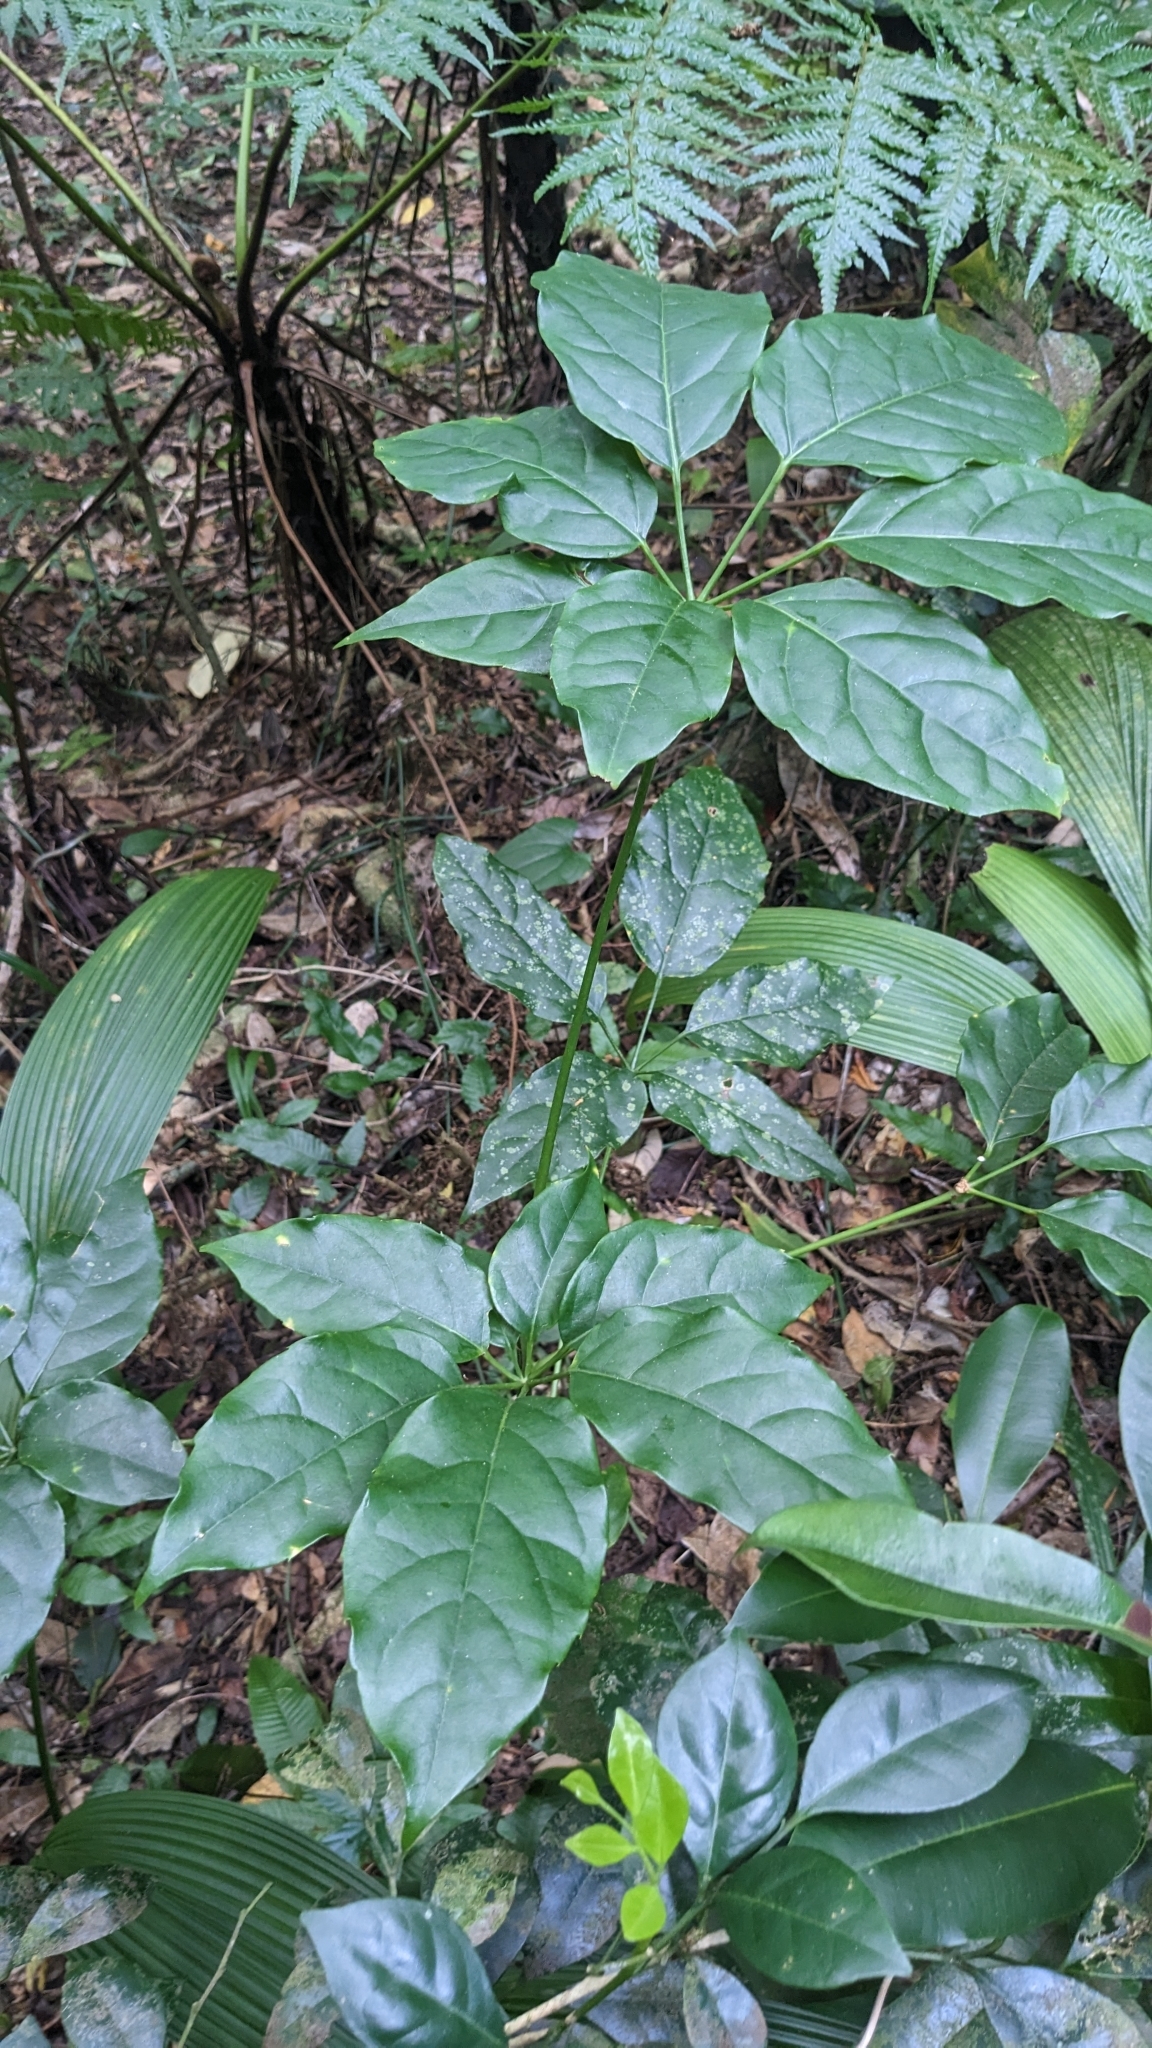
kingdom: Plantae
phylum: Tracheophyta
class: Magnoliopsida
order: Apiales
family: Araliaceae
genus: Heptapleurum
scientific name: Heptapleurum heptaphyllum
